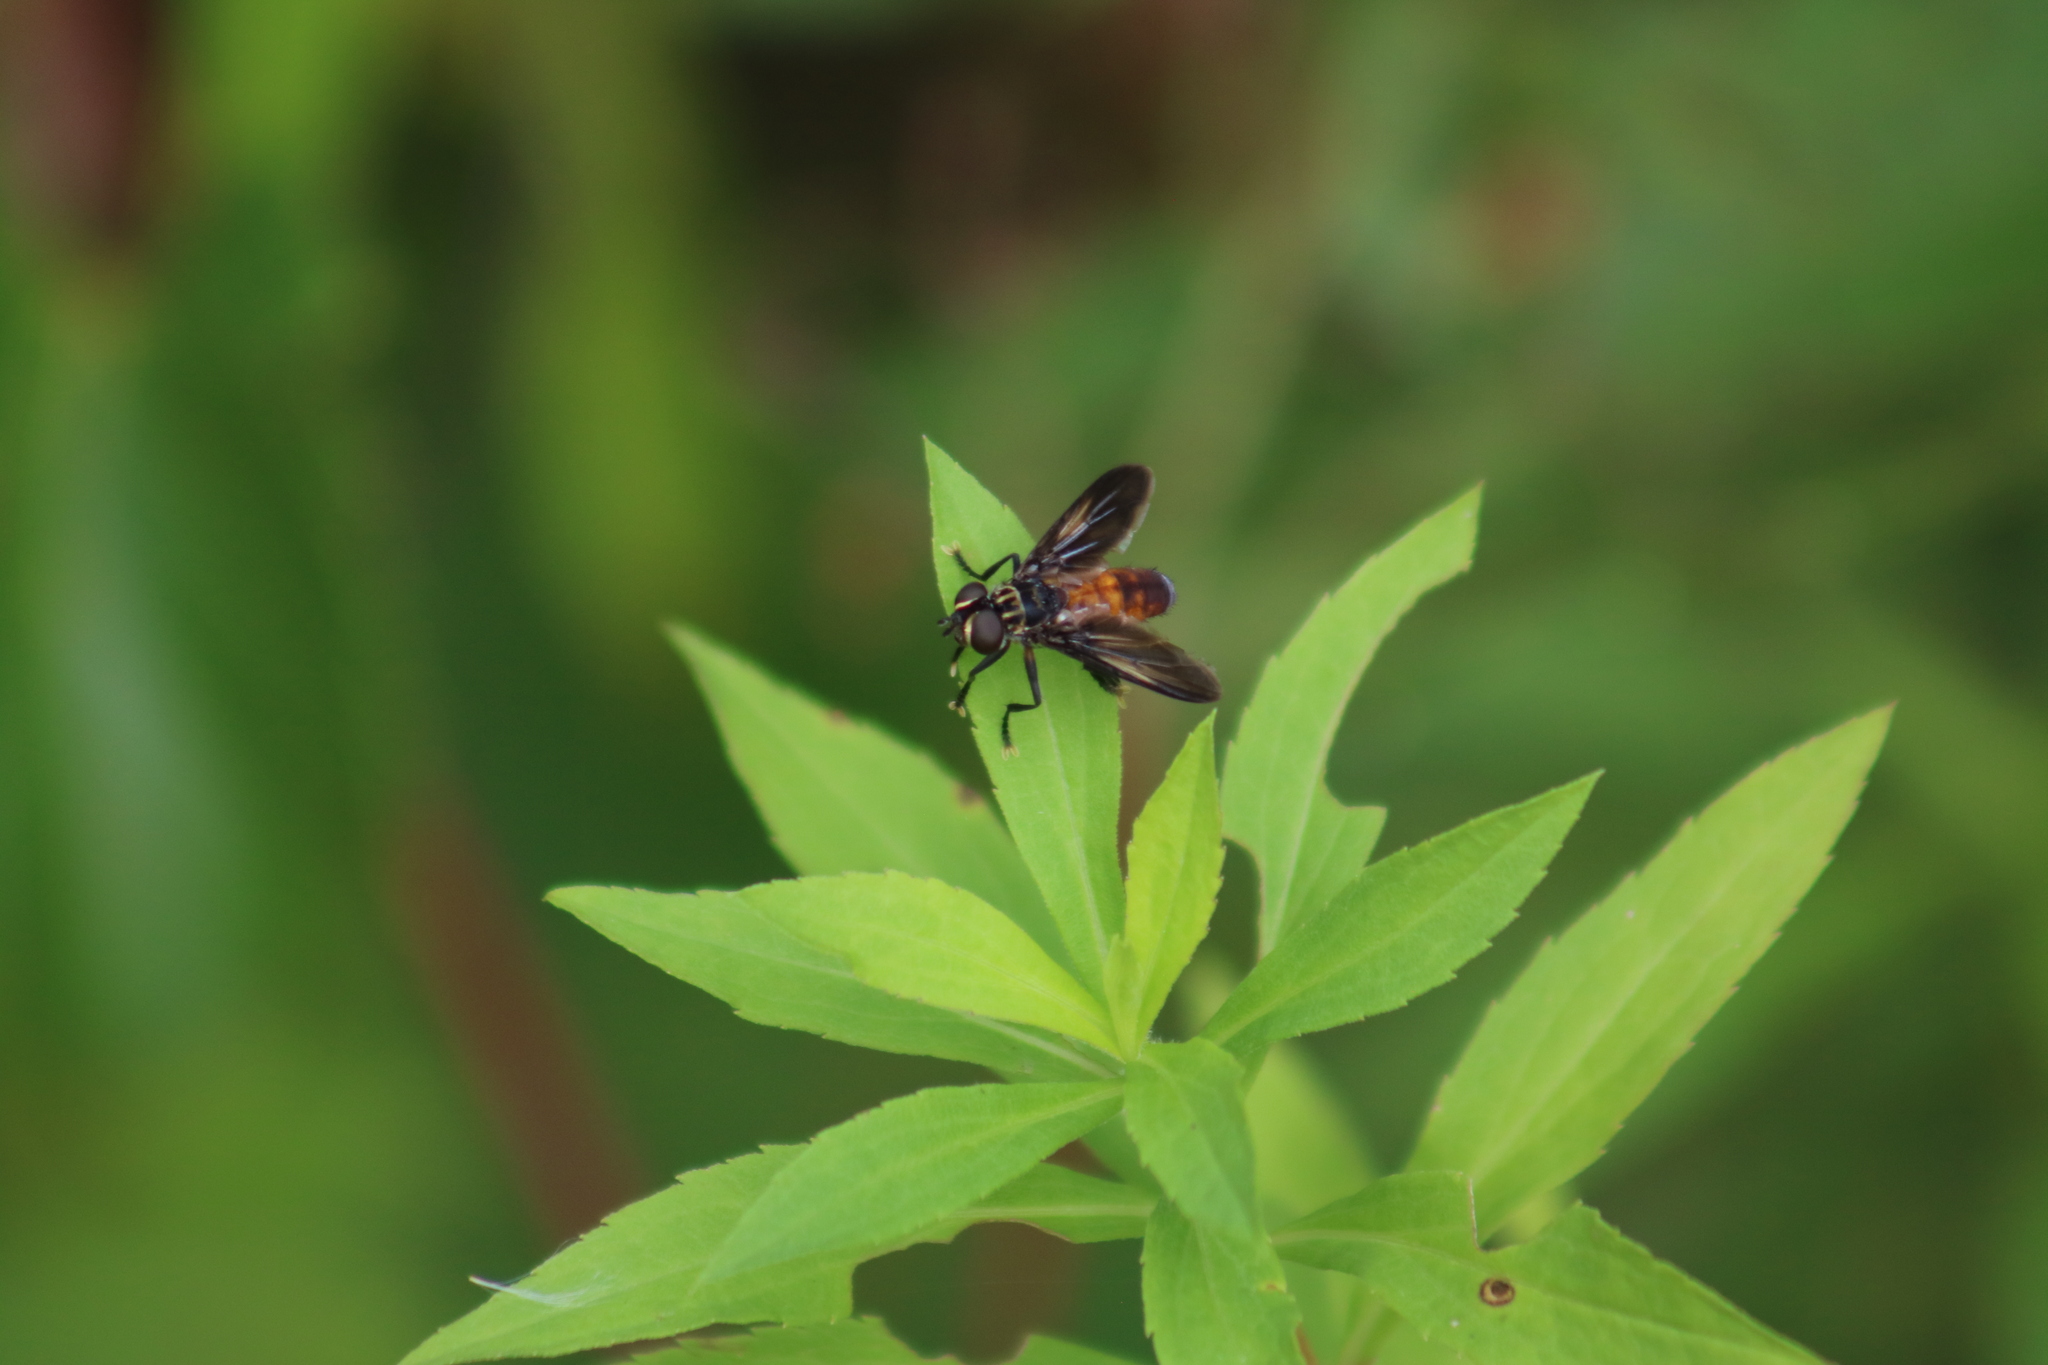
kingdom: Animalia
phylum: Arthropoda
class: Insecta
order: Diptera
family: Tachinidae
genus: Trichopoda
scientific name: Trichopoda pennipes
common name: Tachinid fly
